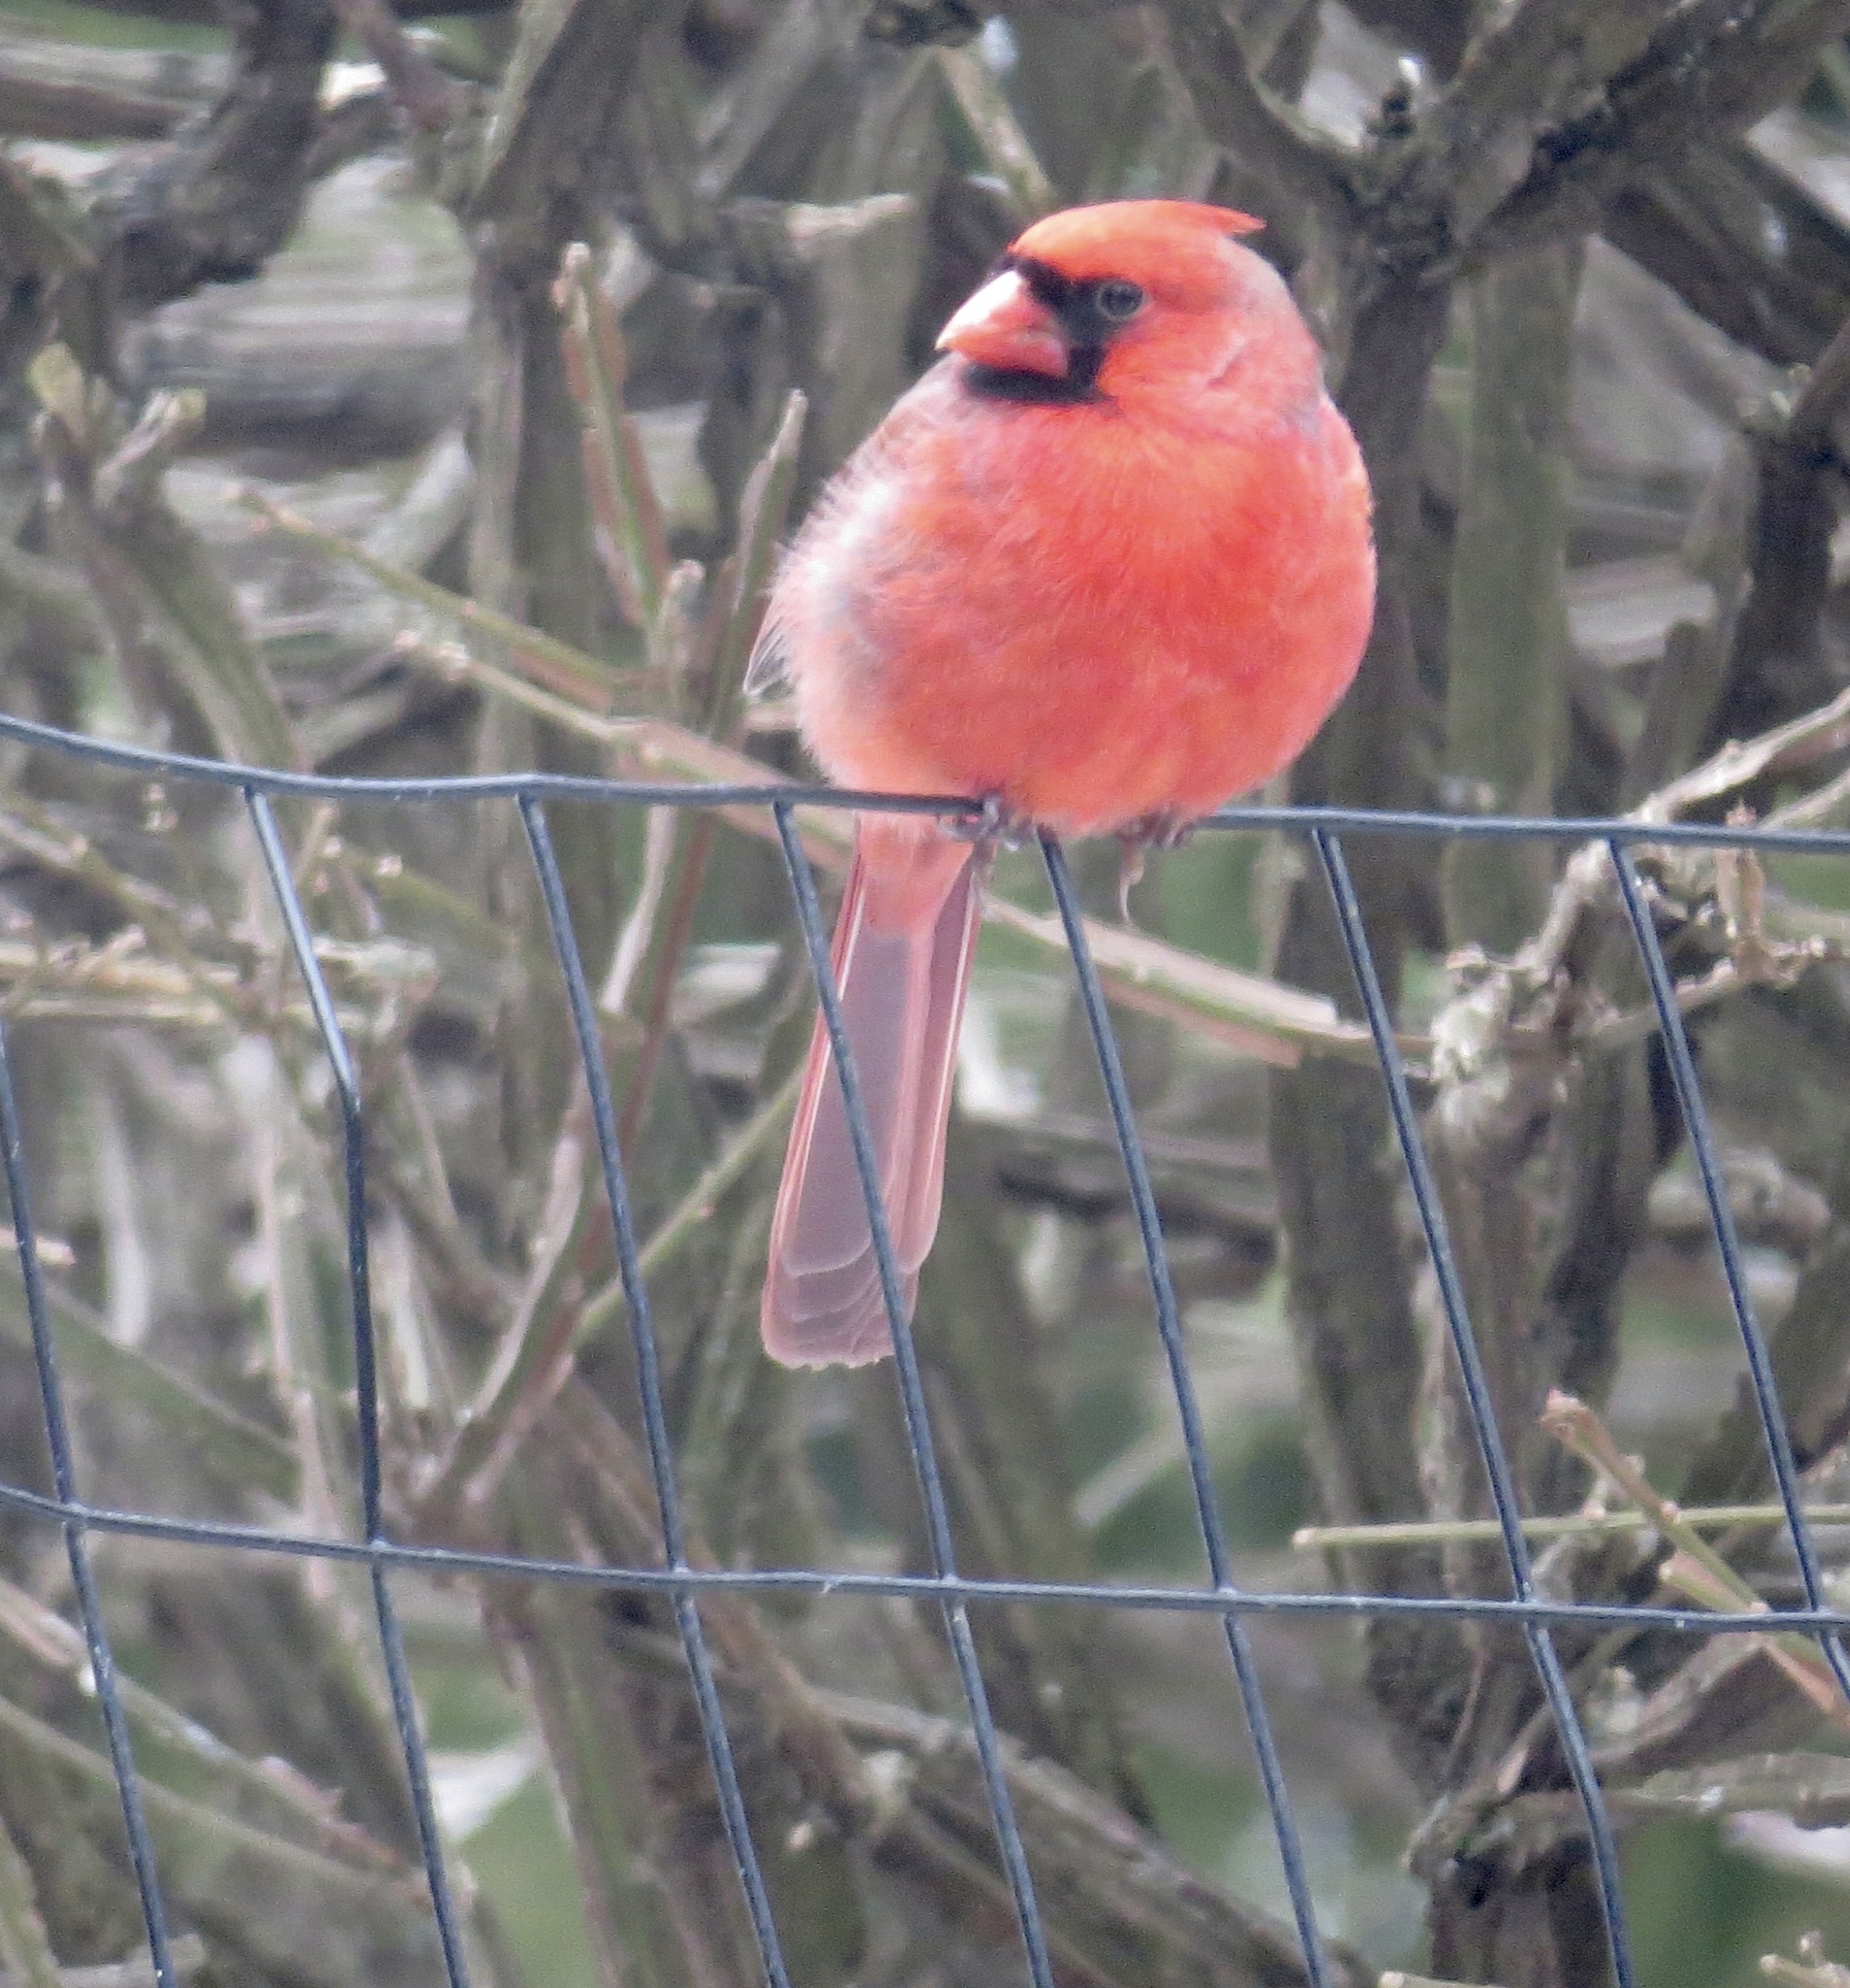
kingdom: Animalia
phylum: Chordata
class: Aves
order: Passeriformes
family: Cardinalidae
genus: Cardinalis
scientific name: Cardinalis cardinalis
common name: Northern cardinal
